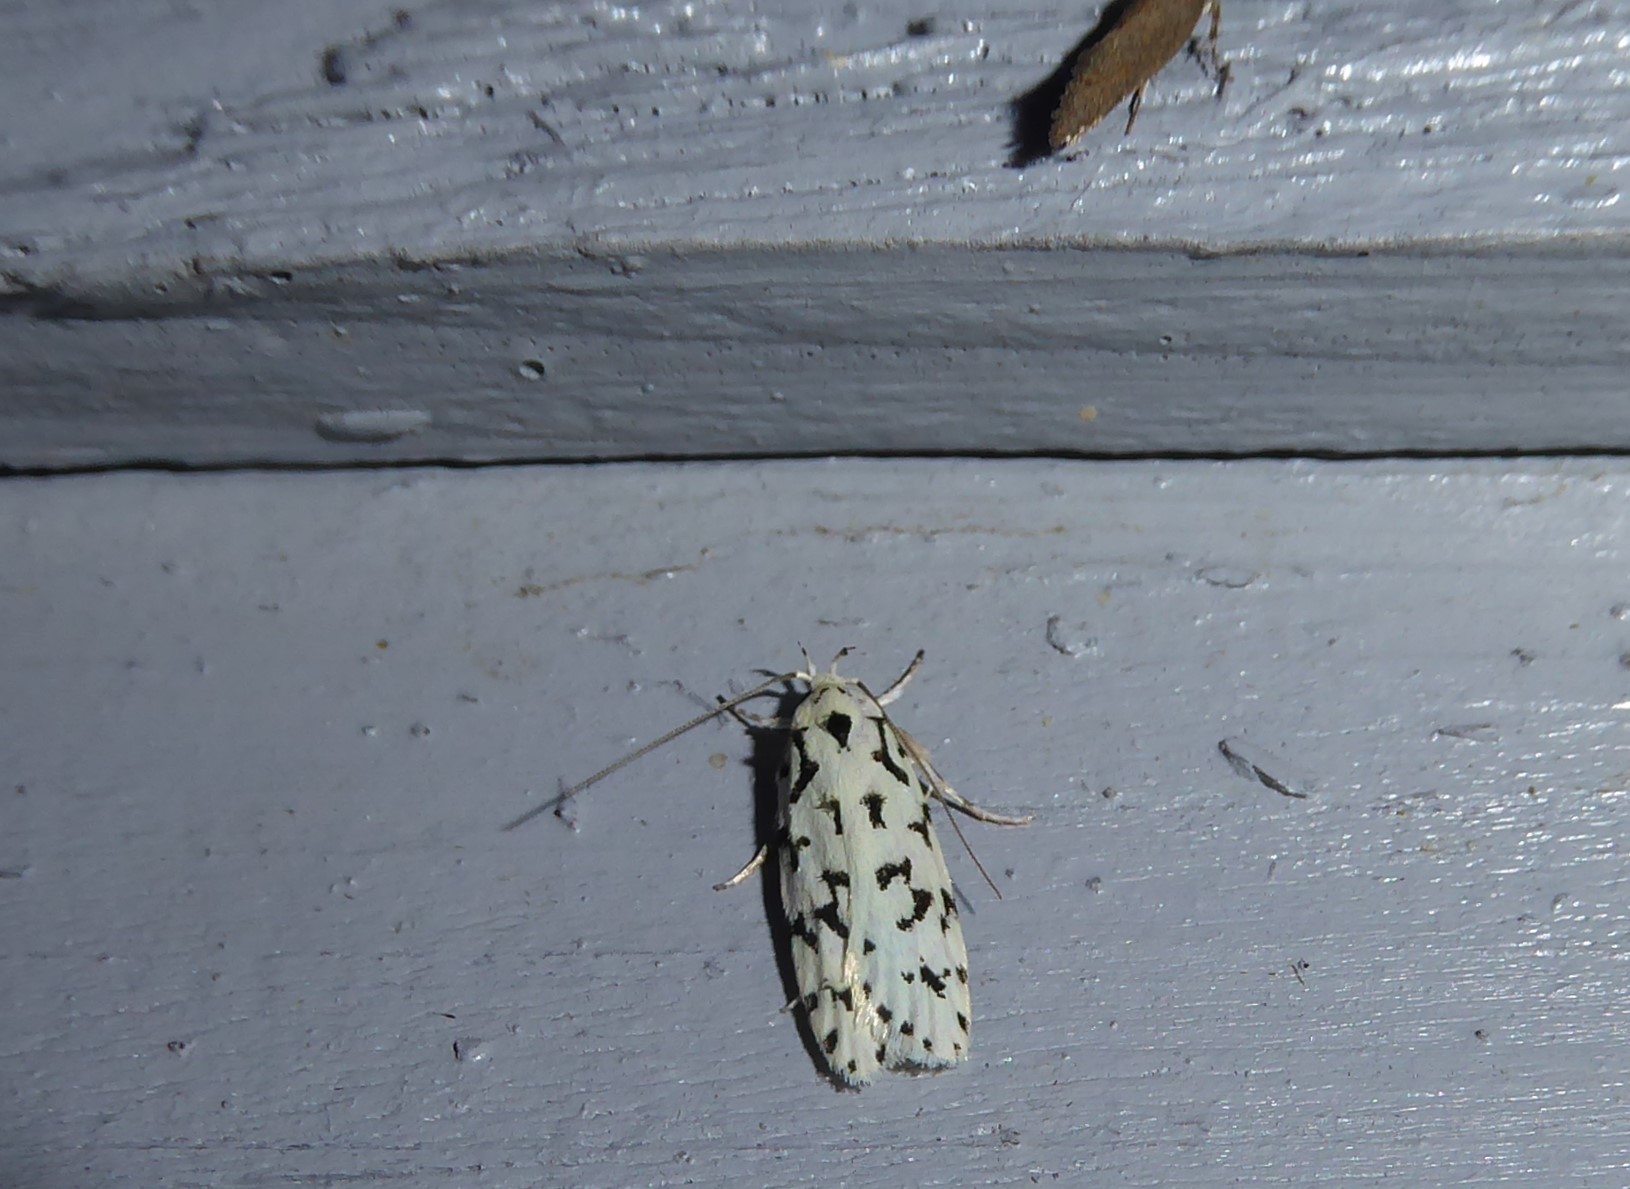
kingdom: Animalia
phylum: Arthropoda
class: Insecta
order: Lepidoptera
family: Oecophoridae
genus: Izatha
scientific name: Izatha huttoni
